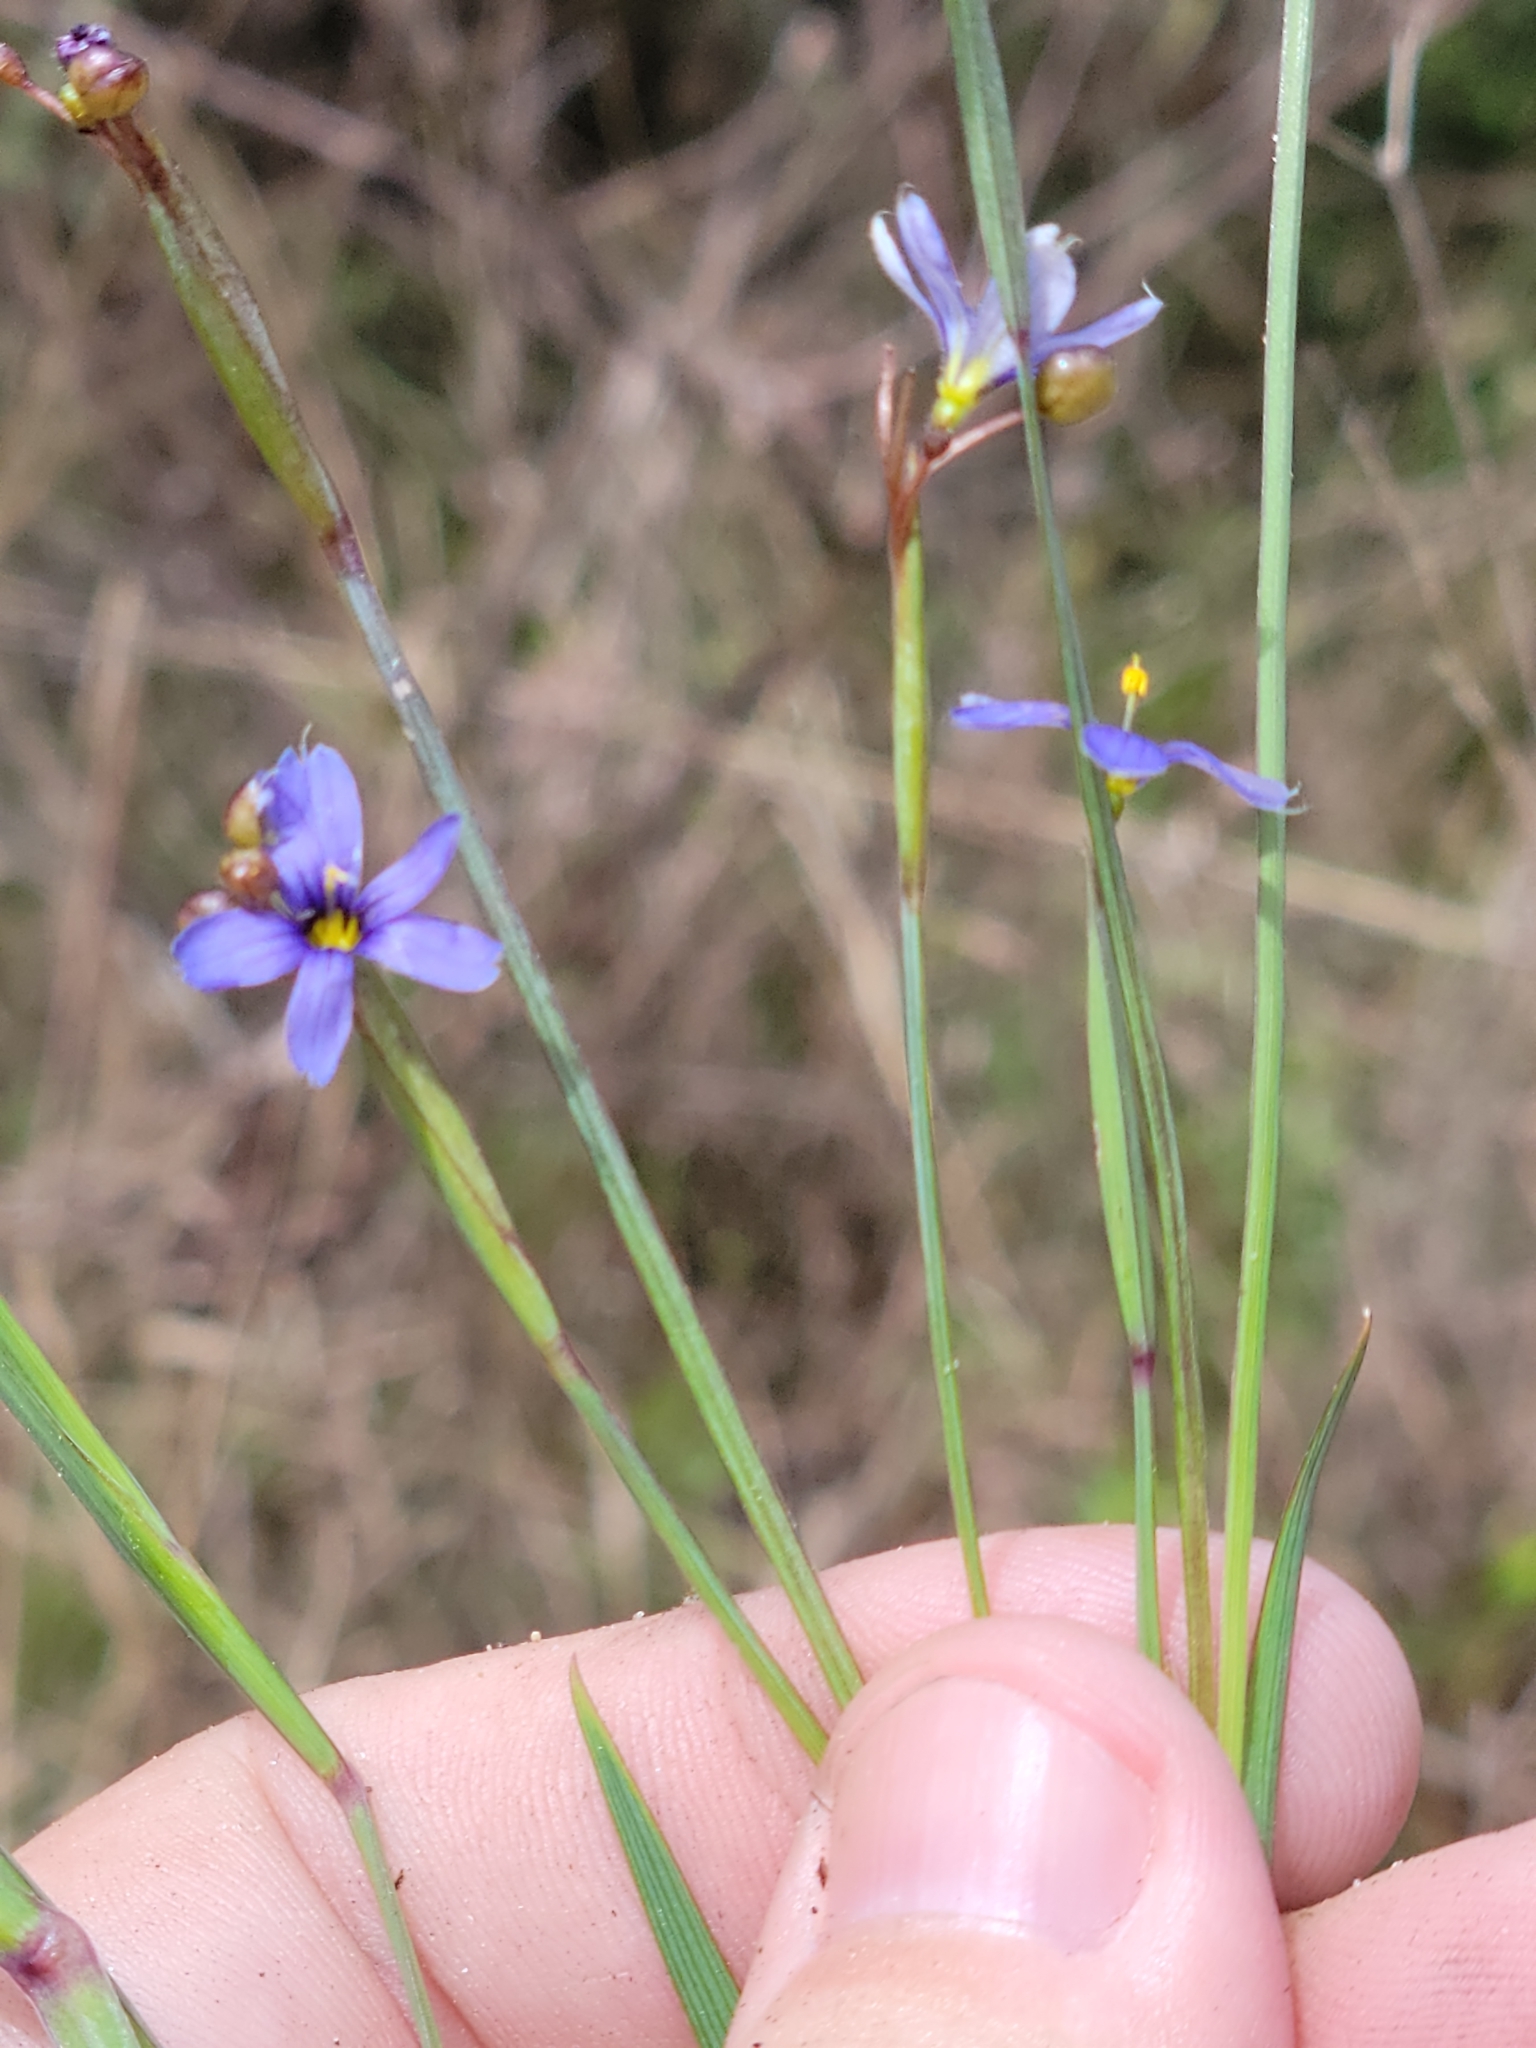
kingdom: Plantae
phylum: Tracheophyta
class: Liliopsida
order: Asparagales
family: Iridaceae
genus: Sisyrinchium
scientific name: Sisyrinchium miamiense
